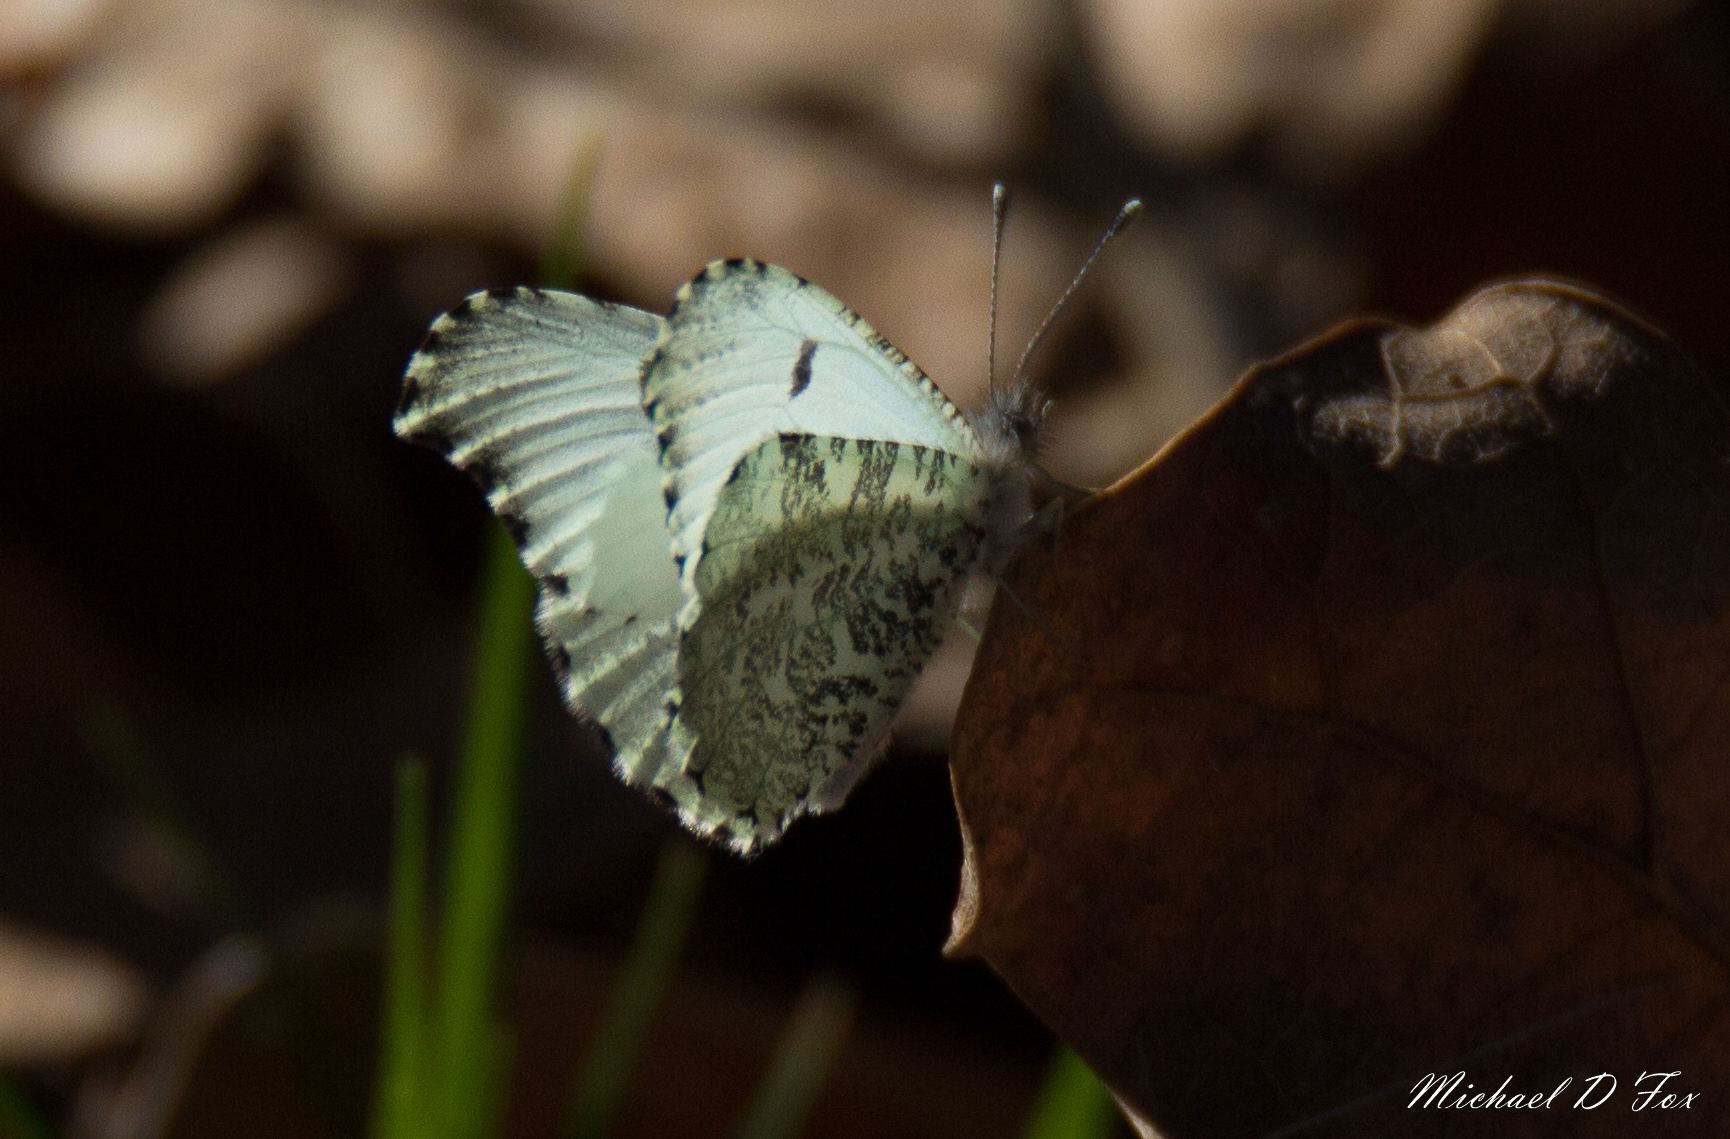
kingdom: Animalia
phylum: Arthropoda
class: Insecta
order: Lepidoptera
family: Pieridae
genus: Anthocharis
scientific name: Anthocharis midea
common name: Falcate orangetip
